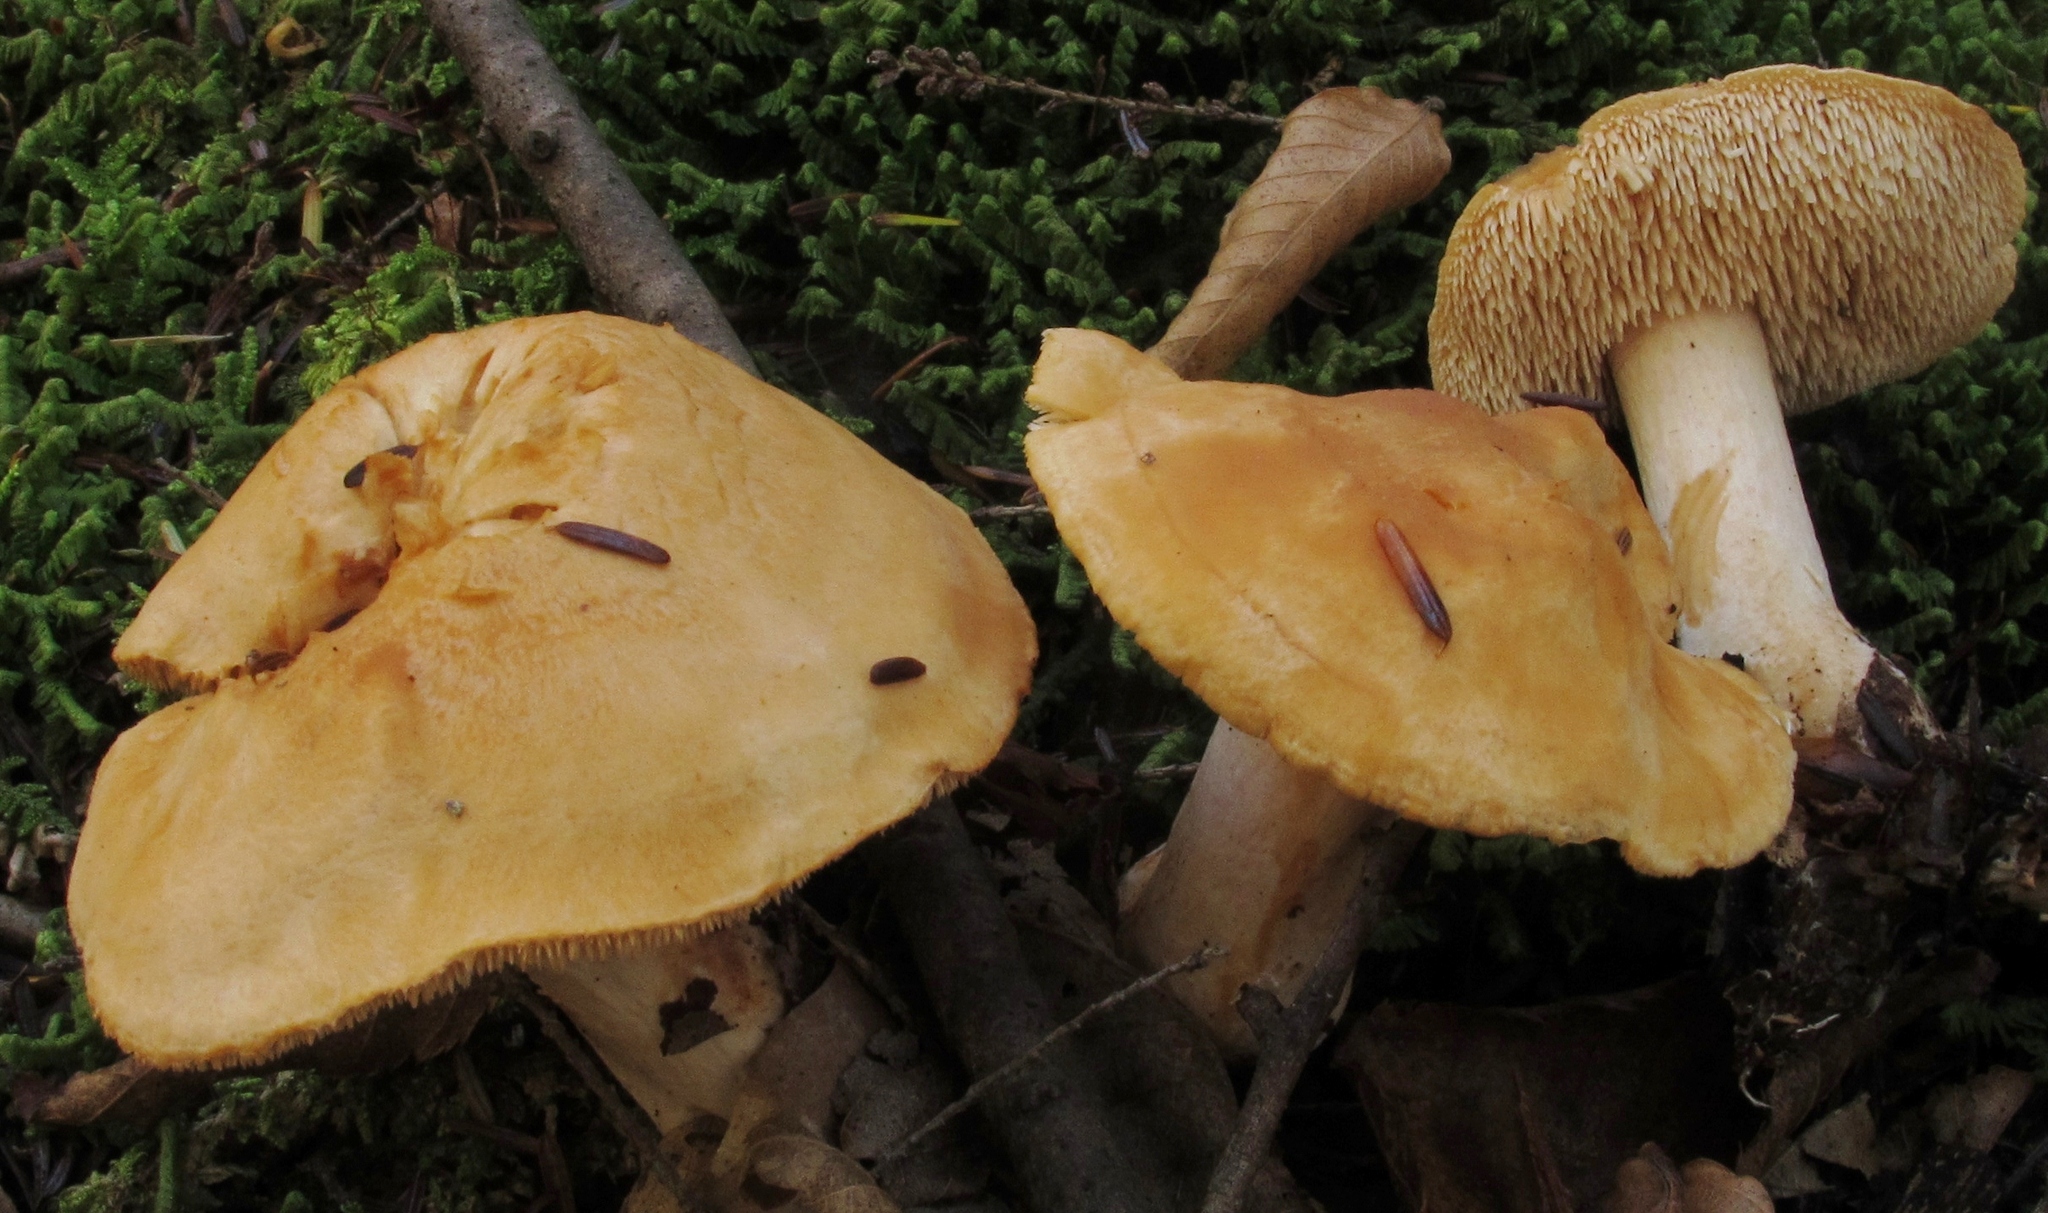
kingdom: Fungi
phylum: Basidiomycota
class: Agaricomycetes
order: Cantharellales
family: Hydnaceae
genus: Hydnum
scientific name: Hydnum umbilicatum
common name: Umbilicate hedgehog
